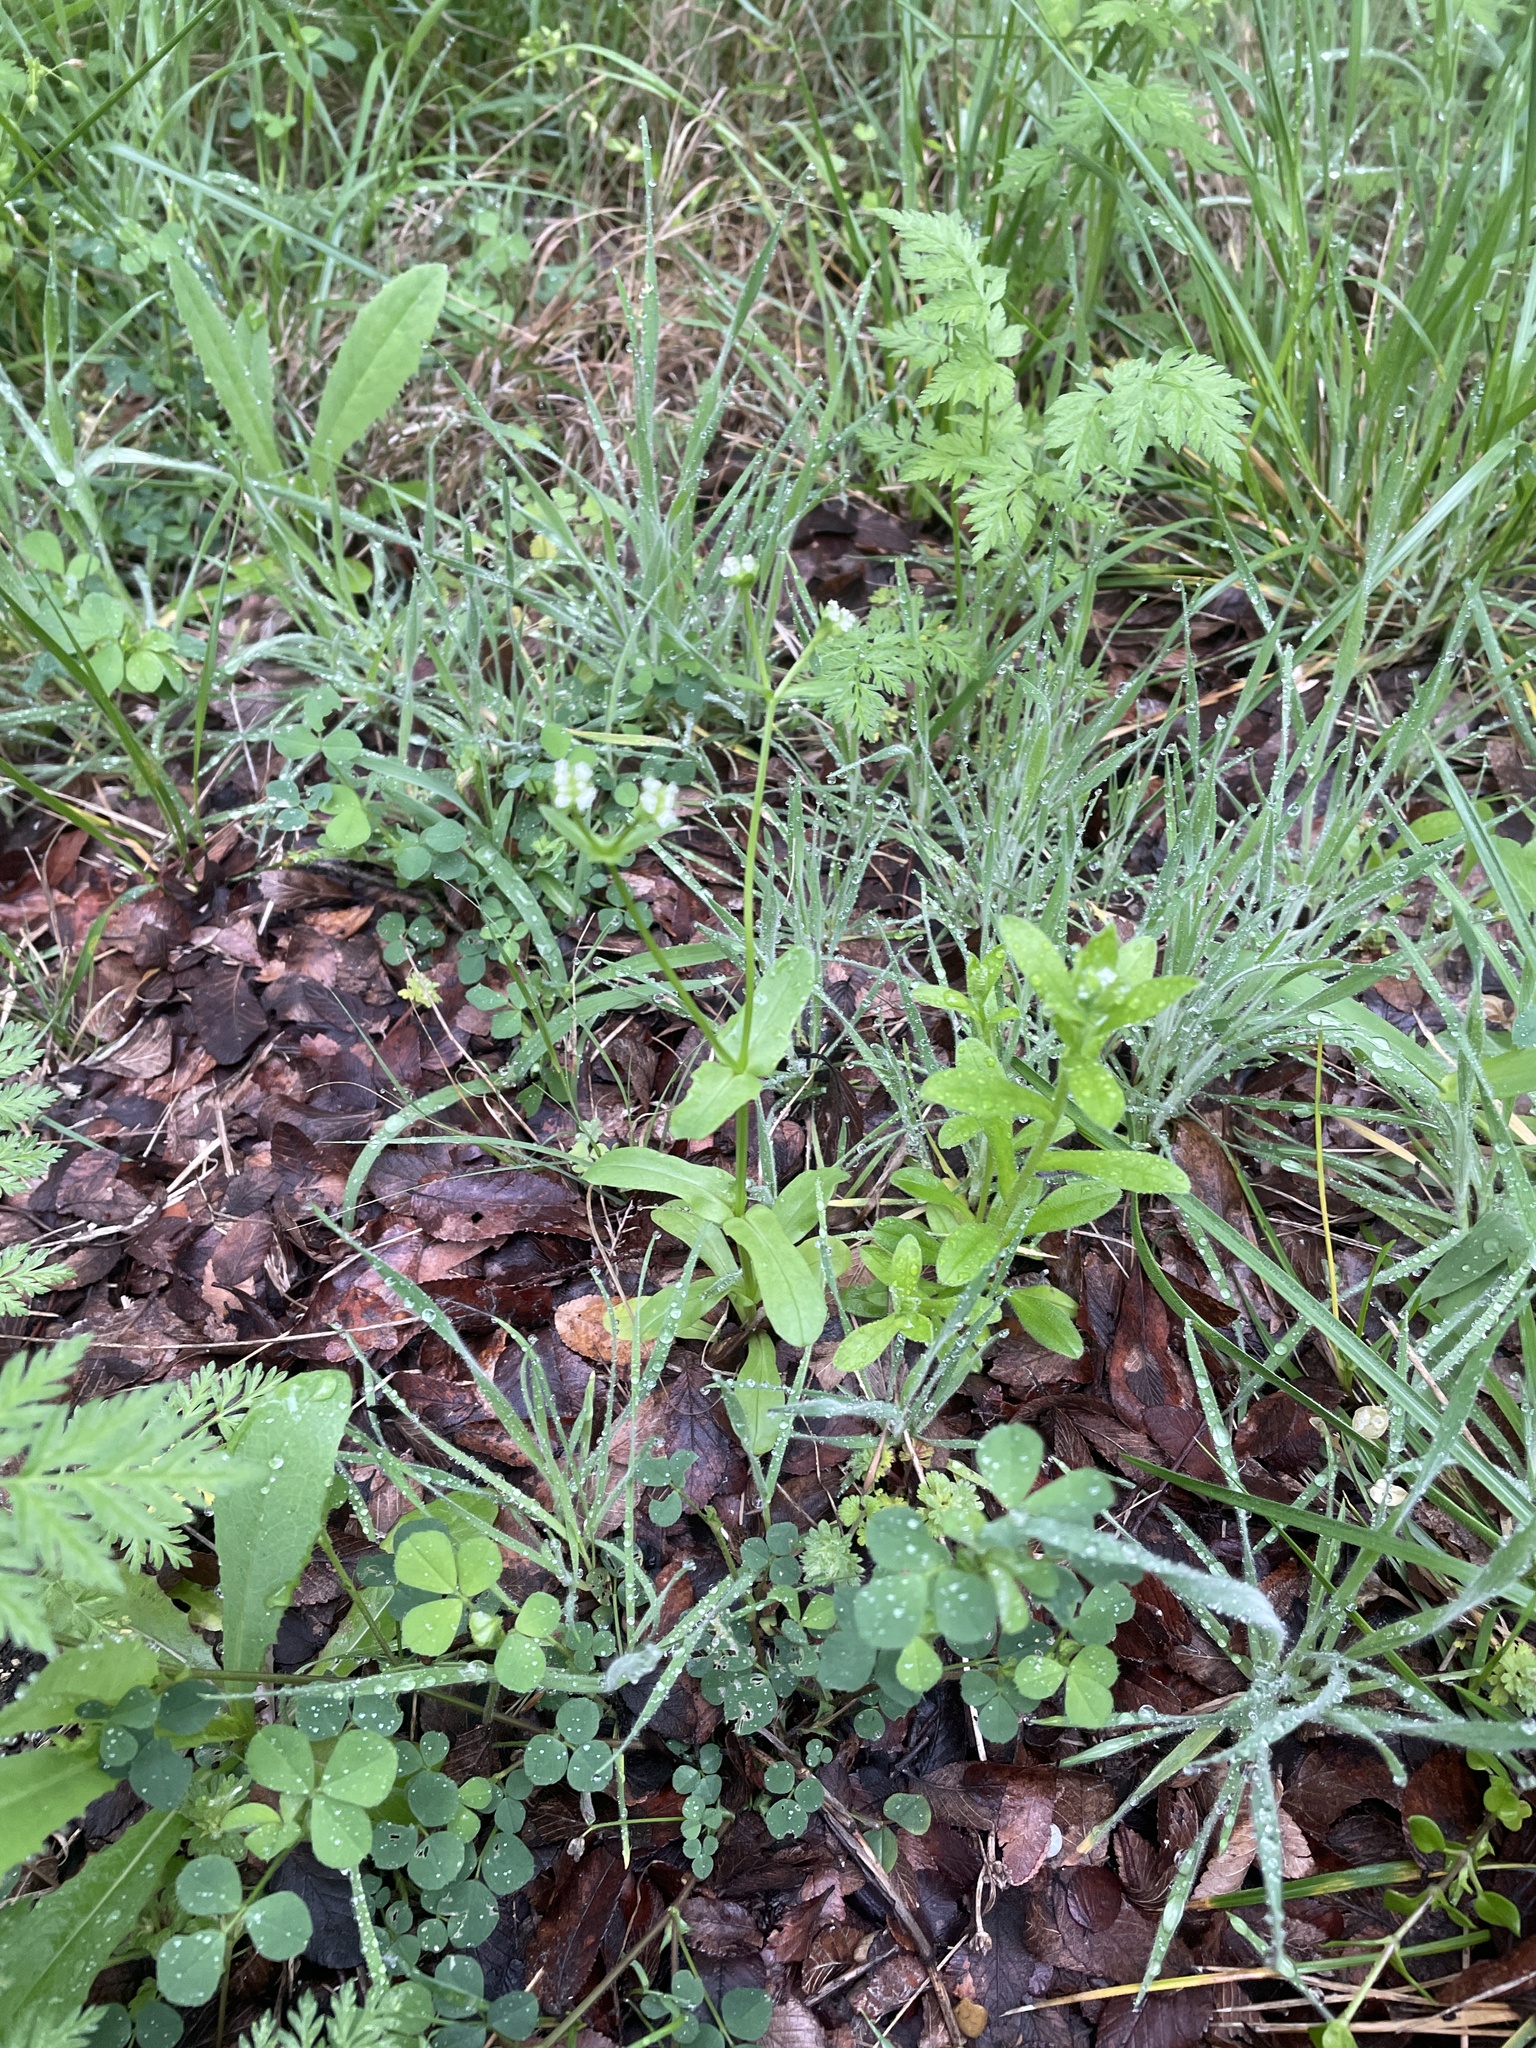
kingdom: Plantae
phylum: Tracheophyta
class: Magnoliopsida
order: Dipsacales
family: Caprifoliaceae
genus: Valerianella
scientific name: Valerianella radiata
